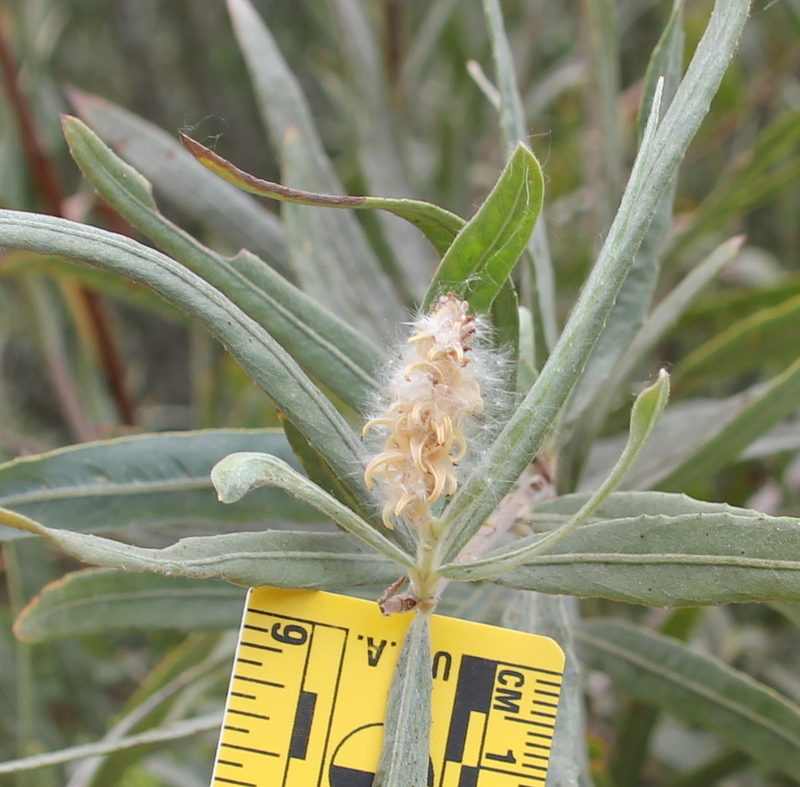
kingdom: Plantae
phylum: Tracheophyta
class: Magnoliopsida
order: Malpighiales
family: Salicaceae
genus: Salix
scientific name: Salix exigua
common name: Coyote willow
